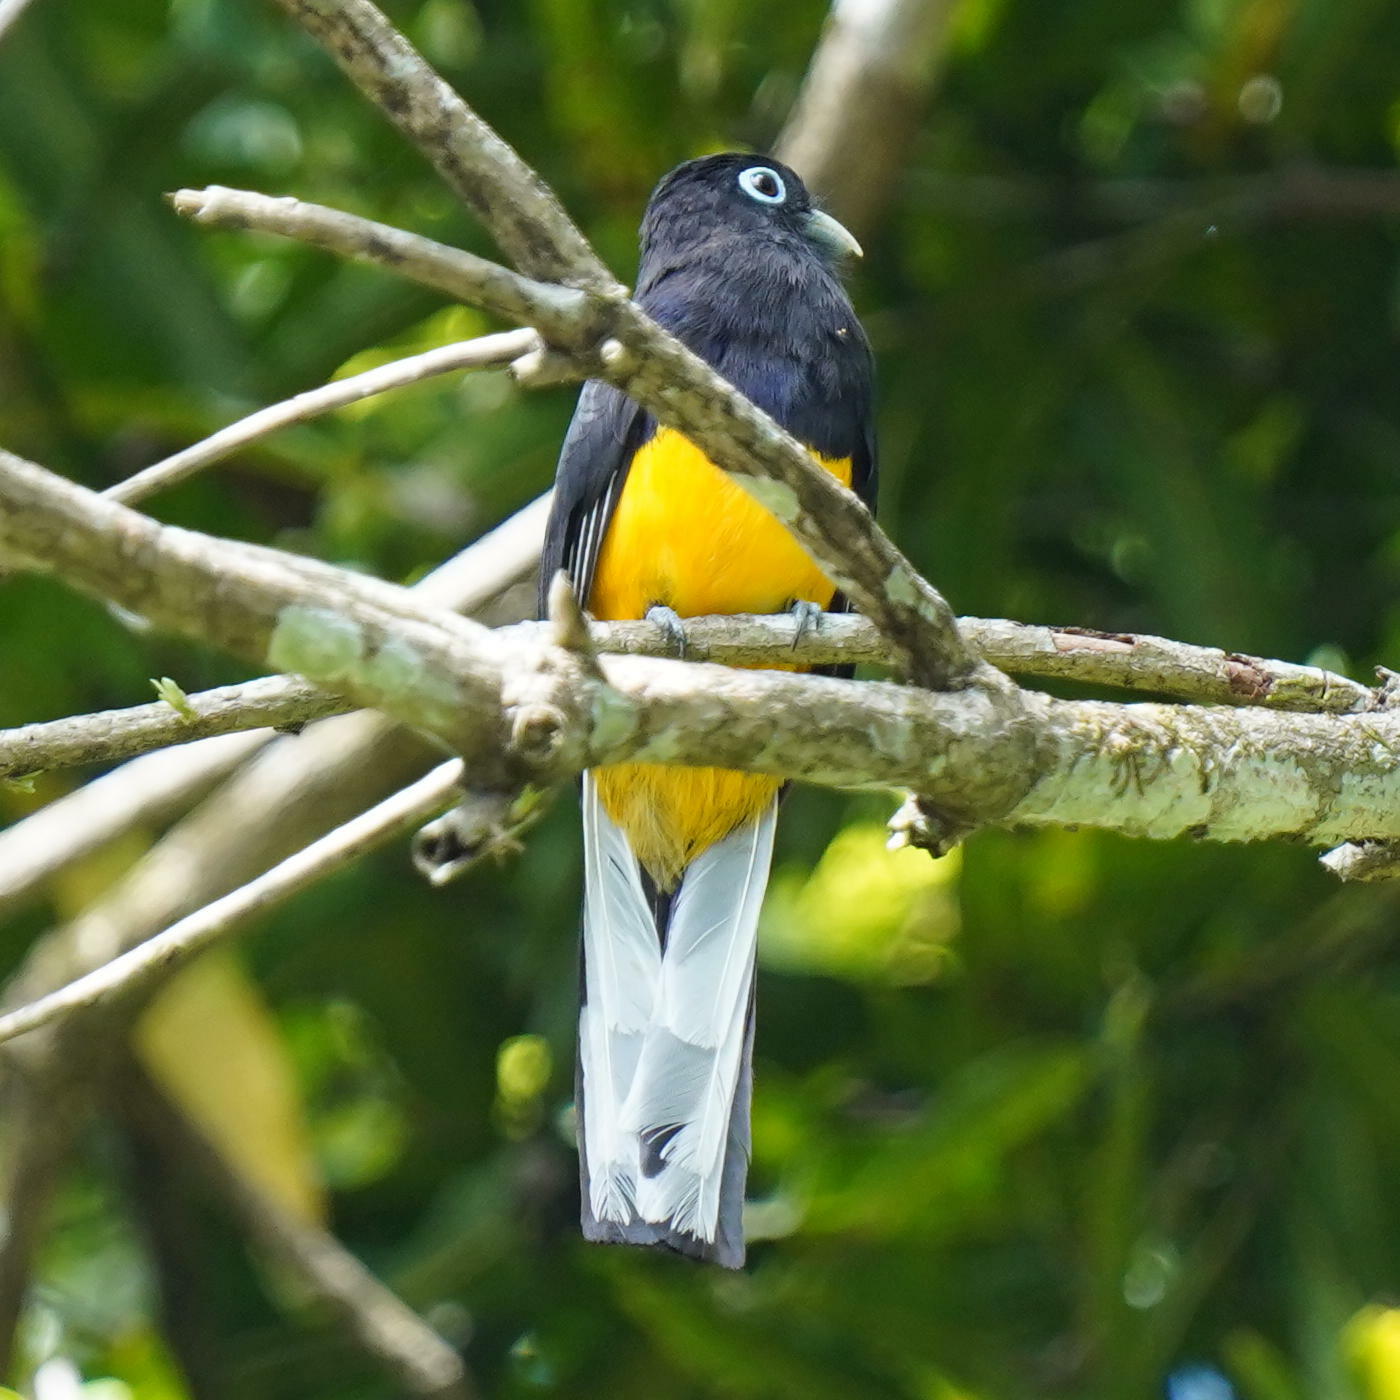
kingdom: Animalia
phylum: Chordata
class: Aves
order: Trogoniformes
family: Trogonidae
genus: Trogon
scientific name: Trogon chionurus
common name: White-tailed trogon
